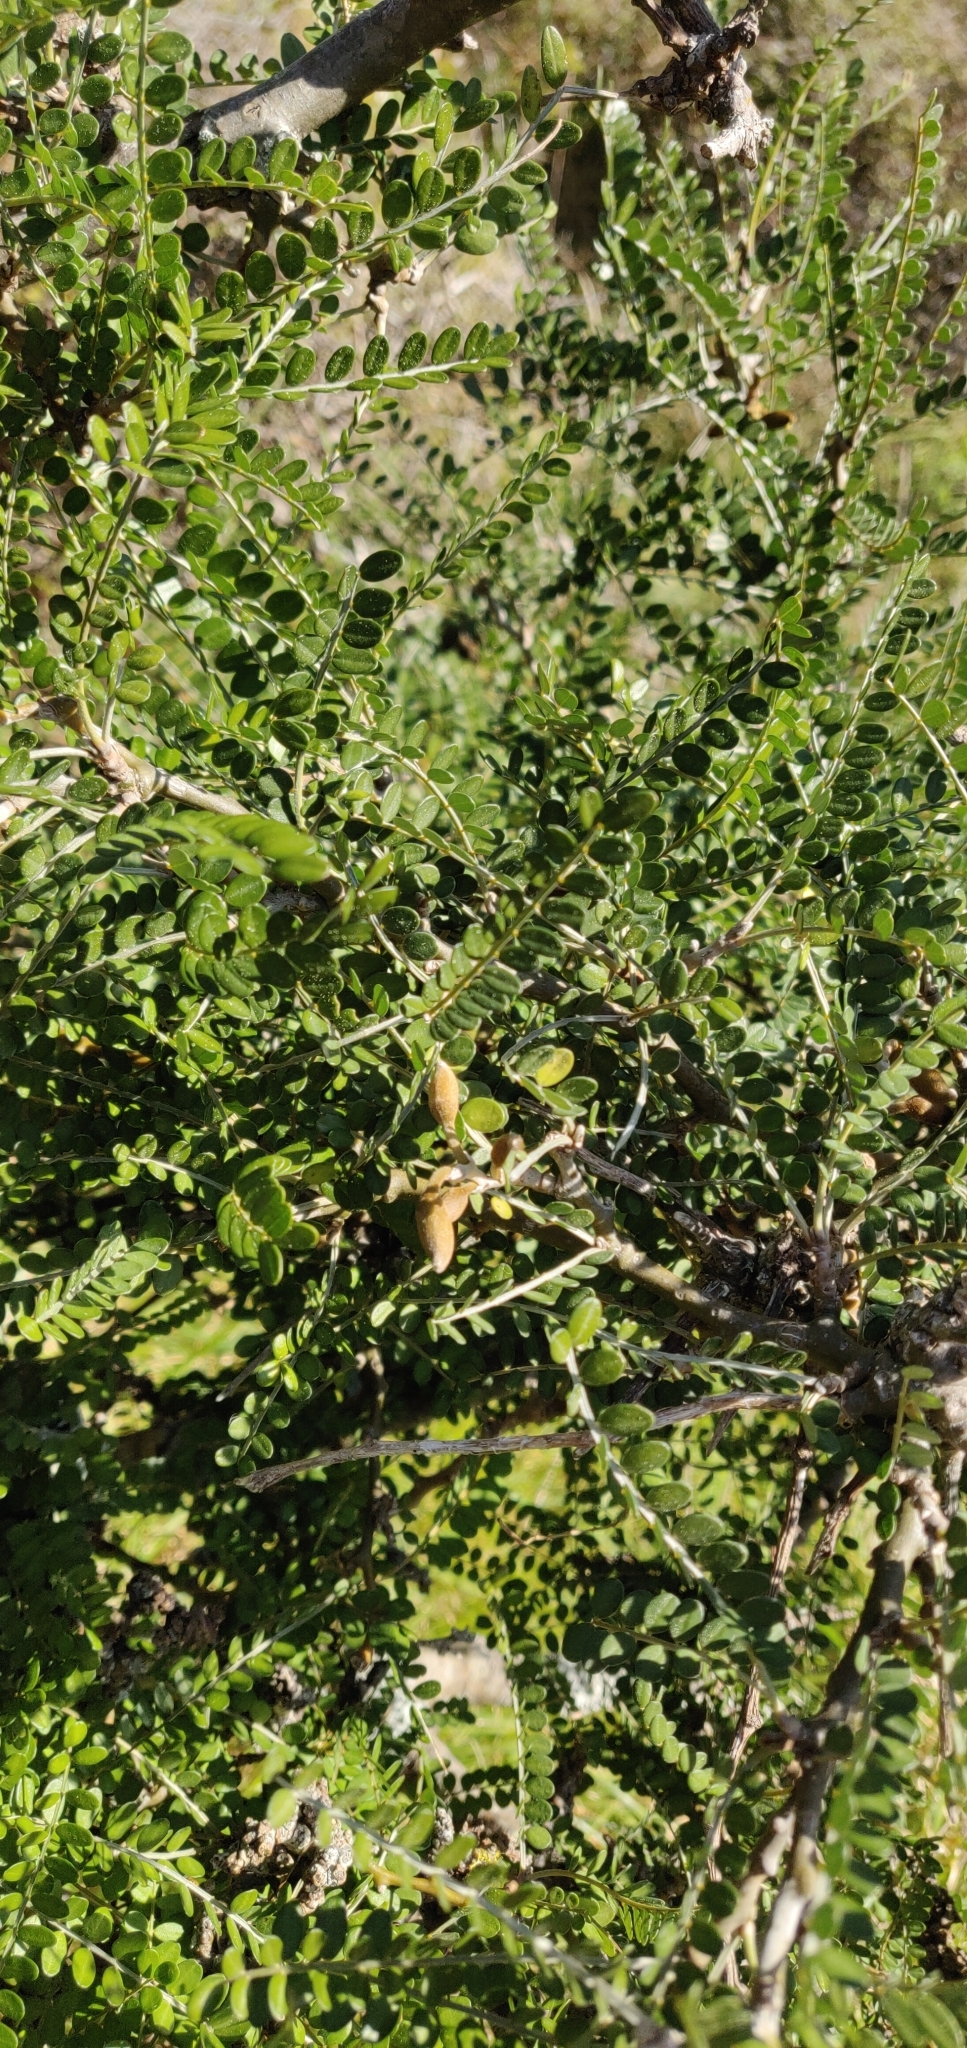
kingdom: Plantae
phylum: Tracheophyta
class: Magnoliopsida
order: Fabales
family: Fabaceae
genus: Sophora
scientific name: Sophora molloyi
